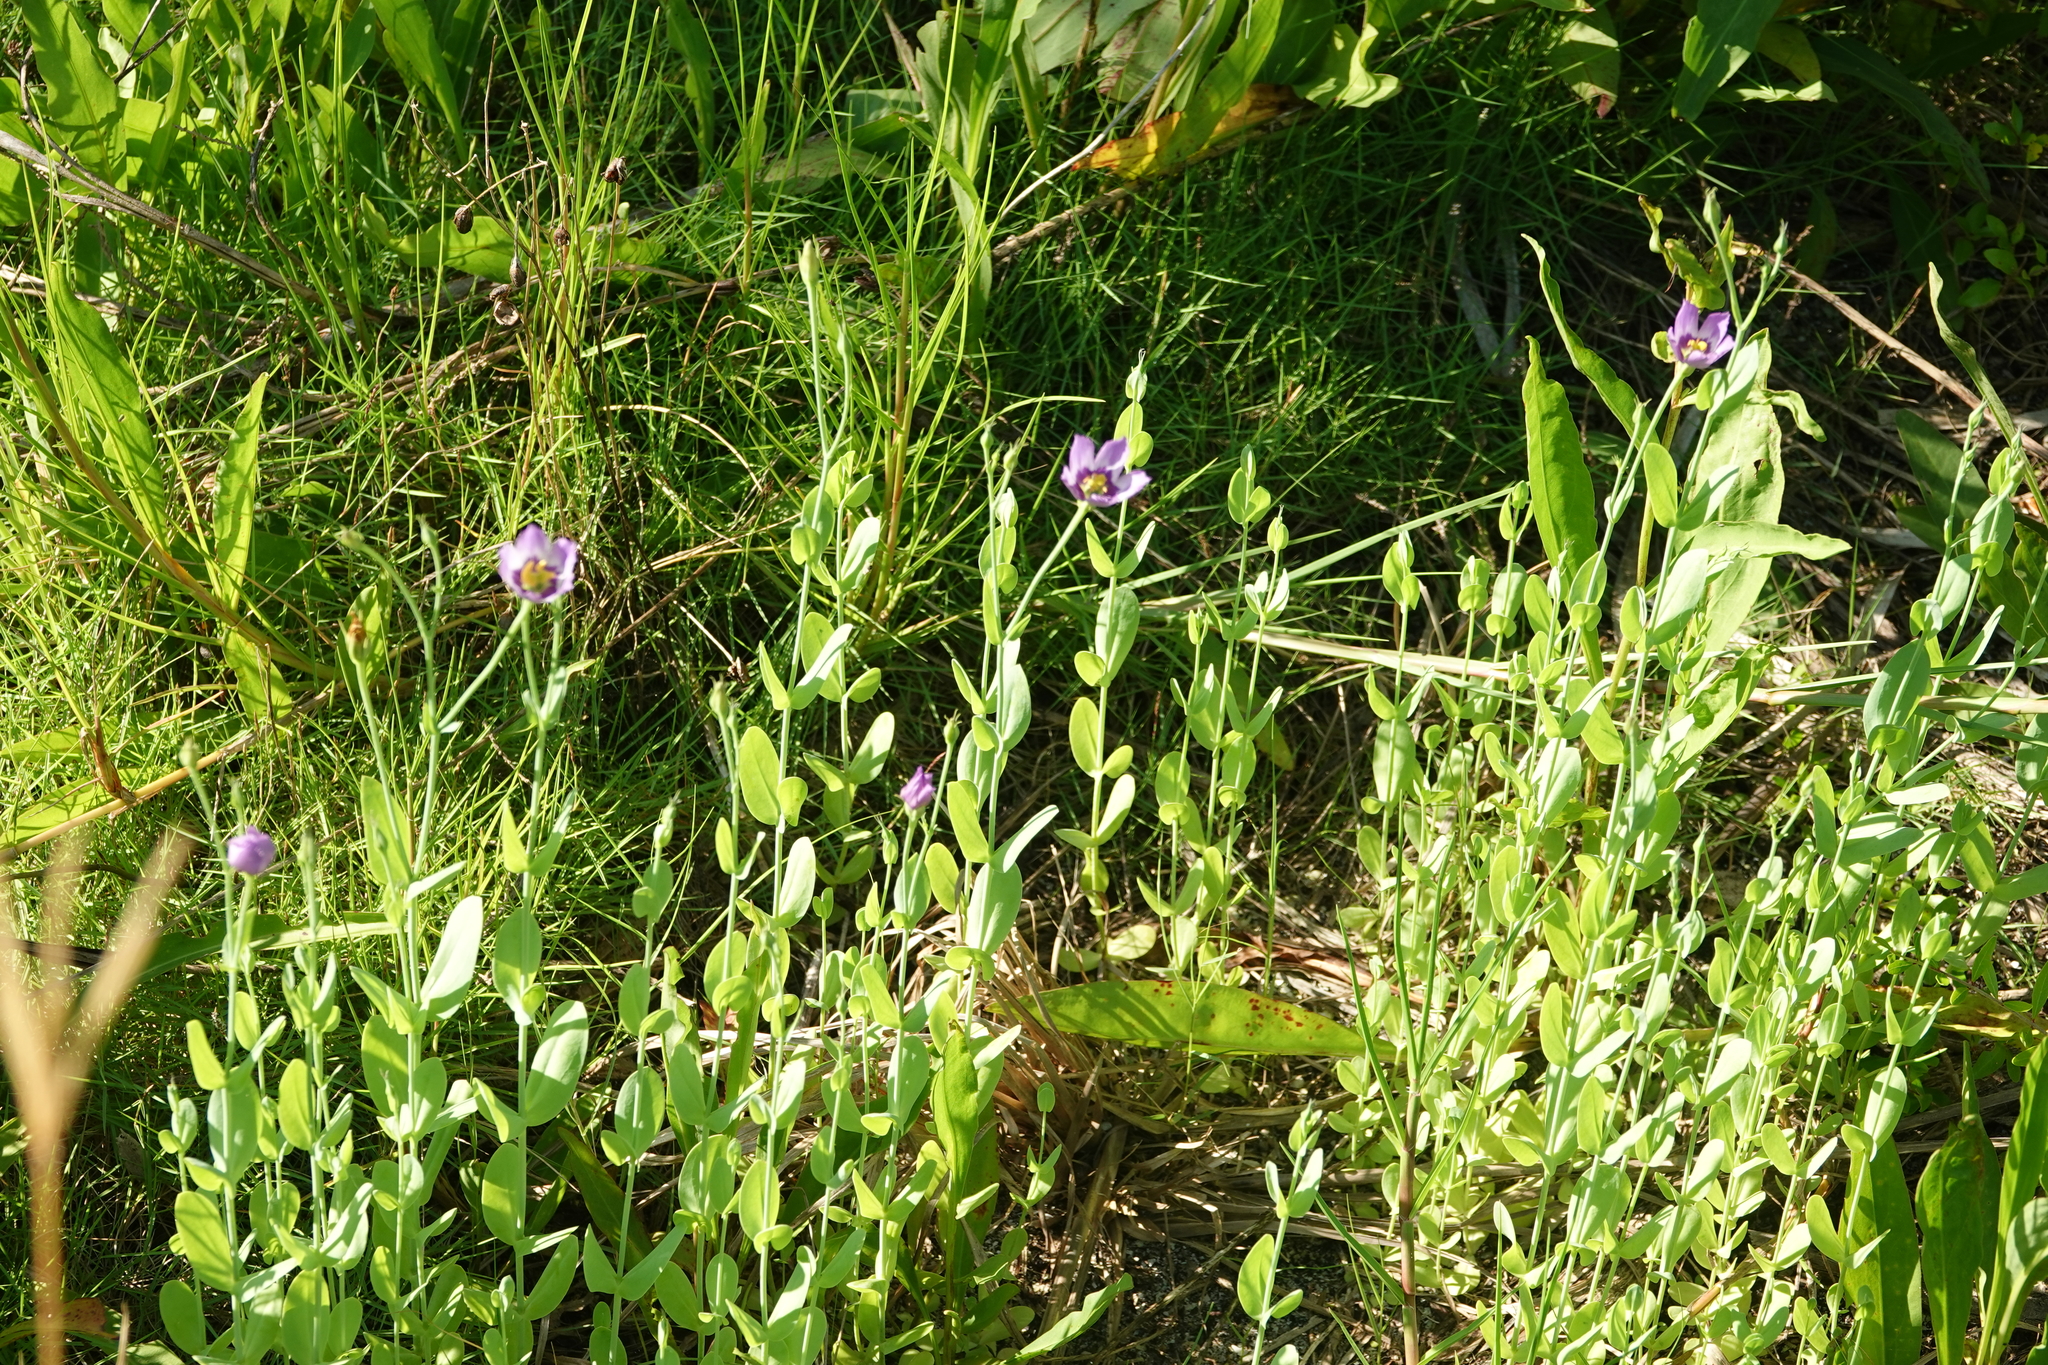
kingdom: Plantae
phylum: Tracheophyta
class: Magnoliopsida
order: Gentianales
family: Gentianaceae
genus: Eustoma
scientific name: Eustoma exaltatum
